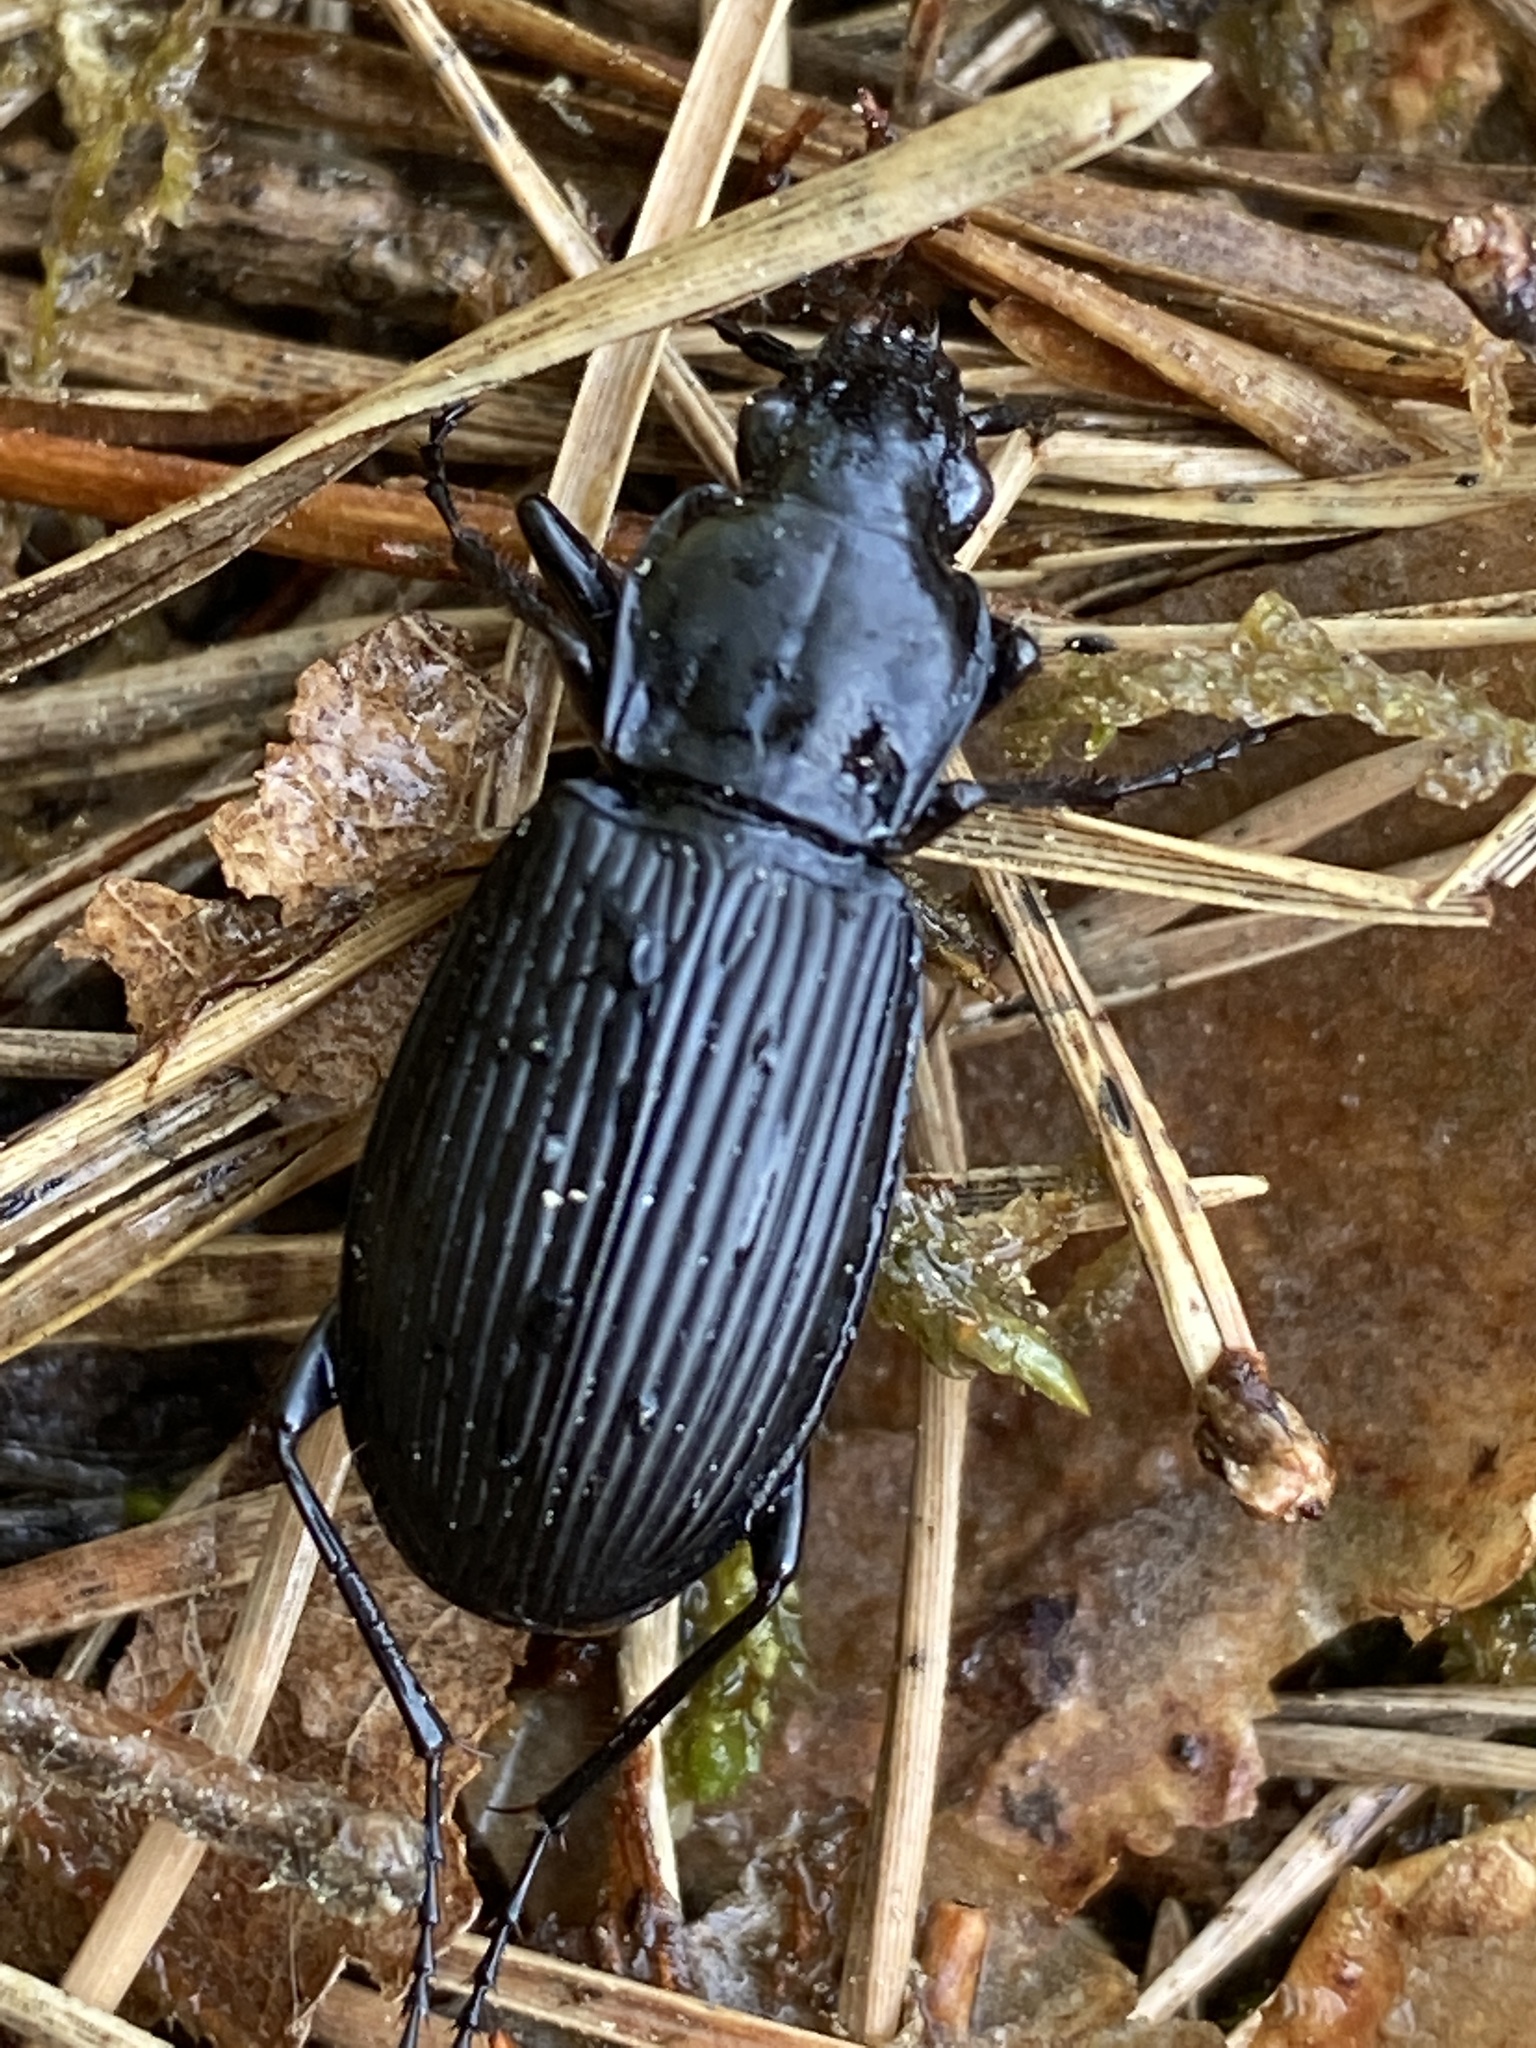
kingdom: Animalia
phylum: Arthropoda
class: Insecta
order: Coleoptera
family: Carabidae
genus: Pterostichus
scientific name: Pterostichus niger
